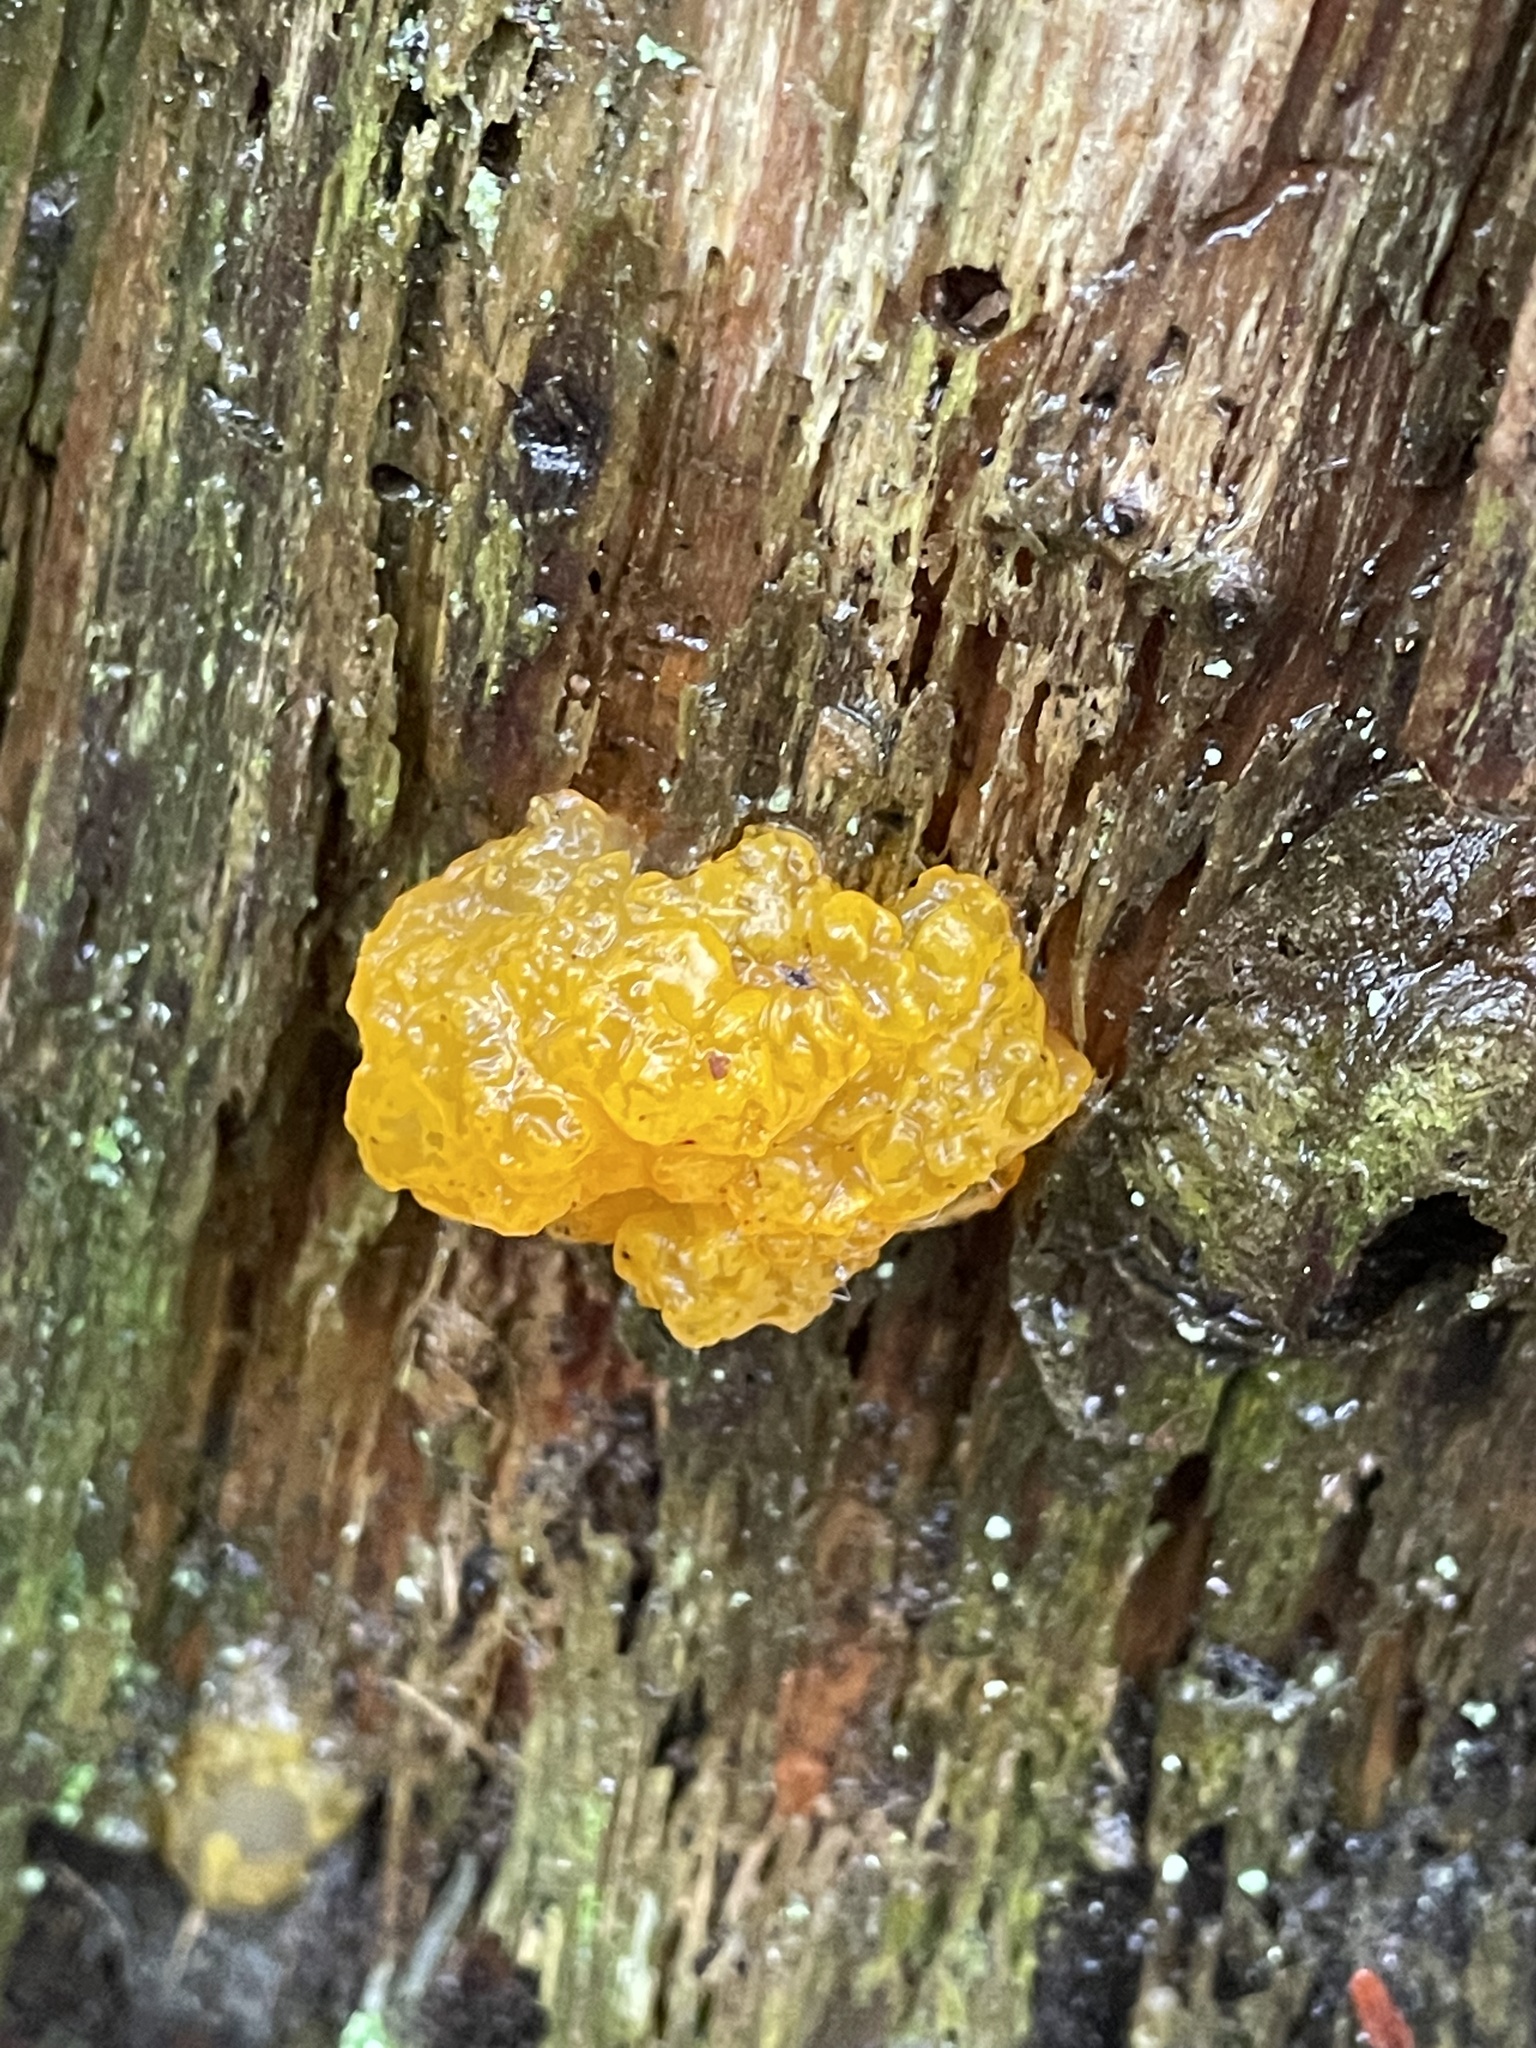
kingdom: Fungi
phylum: Basidiomycota
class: Dacrymycetes
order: Dacrymycetales
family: Dacrymycetaceae
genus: Dacrymyces
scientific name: Dacrymyces chrysospermus
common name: Orange jelly spot
